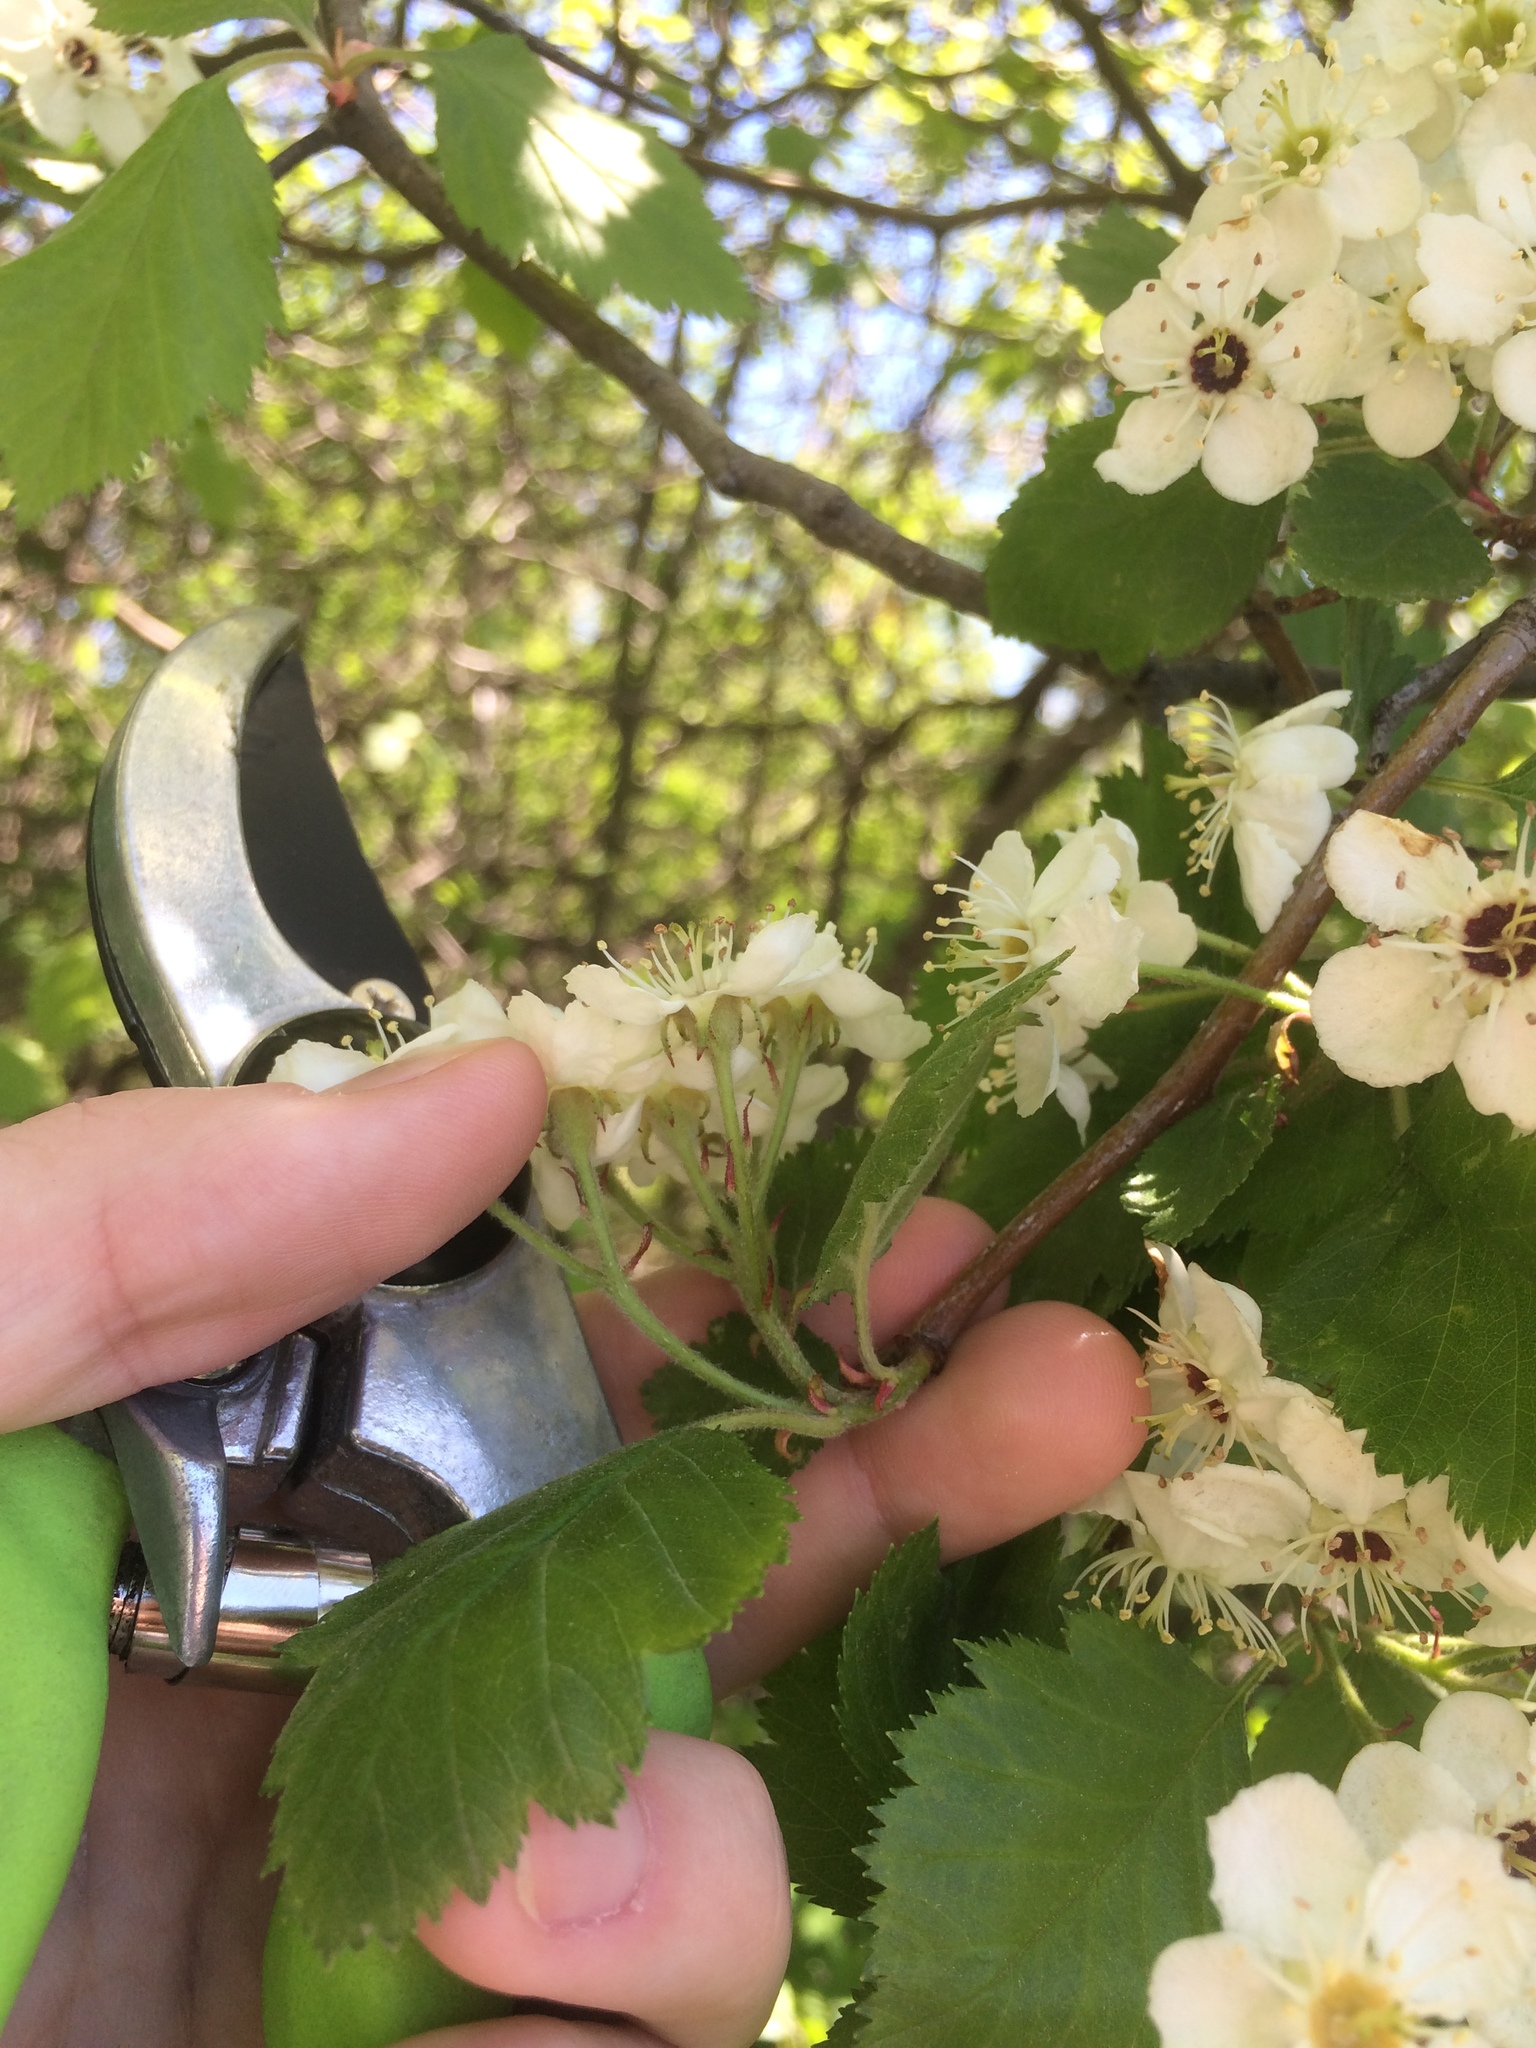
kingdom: Plantae
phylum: Tracheophyta
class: Magnoliopsida
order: Rosales
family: Rosaceae
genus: Crataegus
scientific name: Crataegus submollis
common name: Hairy cockspurthorn
